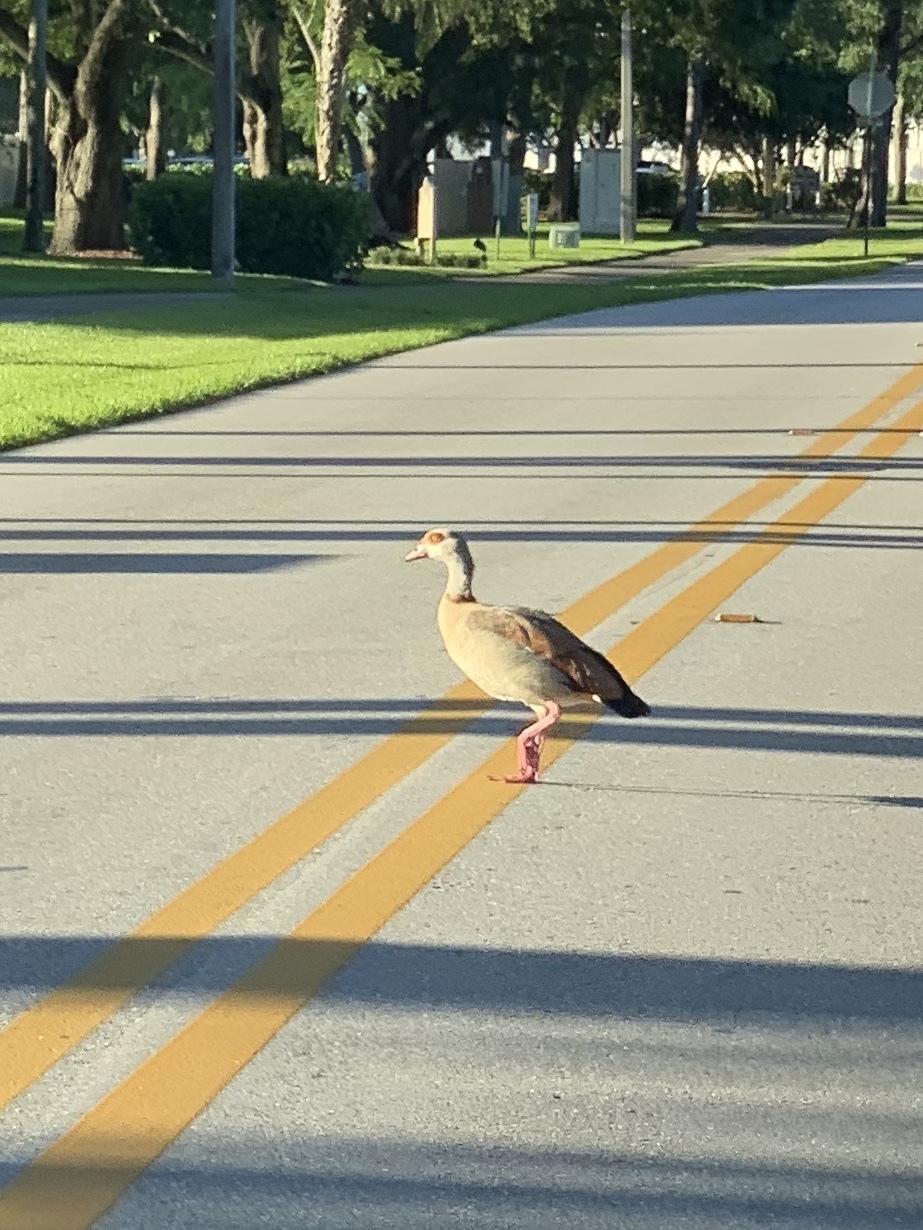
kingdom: Animalia
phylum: Chordata
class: Aves
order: Anseriformes
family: Anatidae
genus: Alopochen
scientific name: Alopochen aegyptiaca
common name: Egyptian goose
